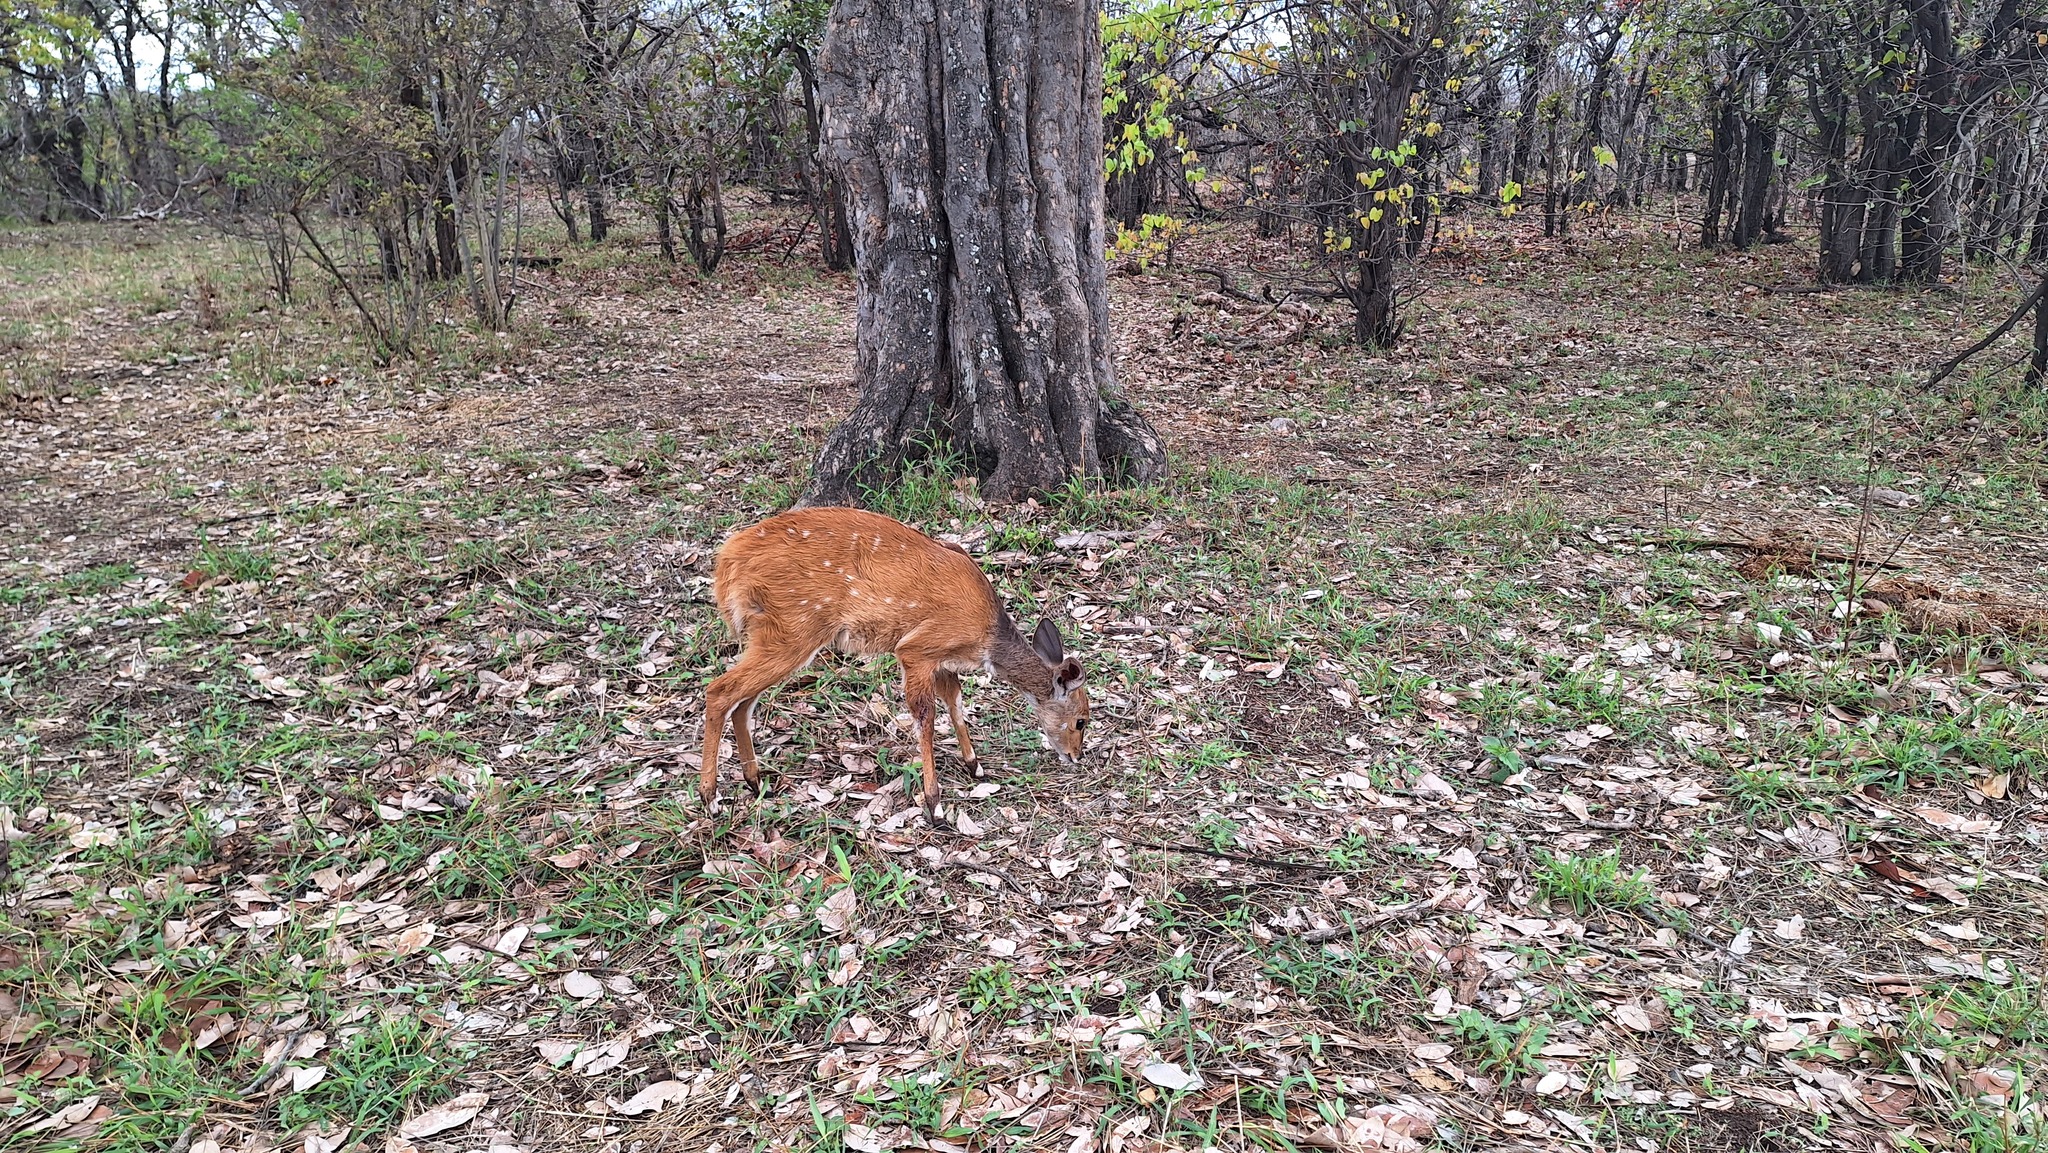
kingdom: Animalia
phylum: Chordata
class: Mammalia
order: Artiodactyla
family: Bovidae
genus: Tragelaphus
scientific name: Tragelaphus scriptus
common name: Bushbuck
